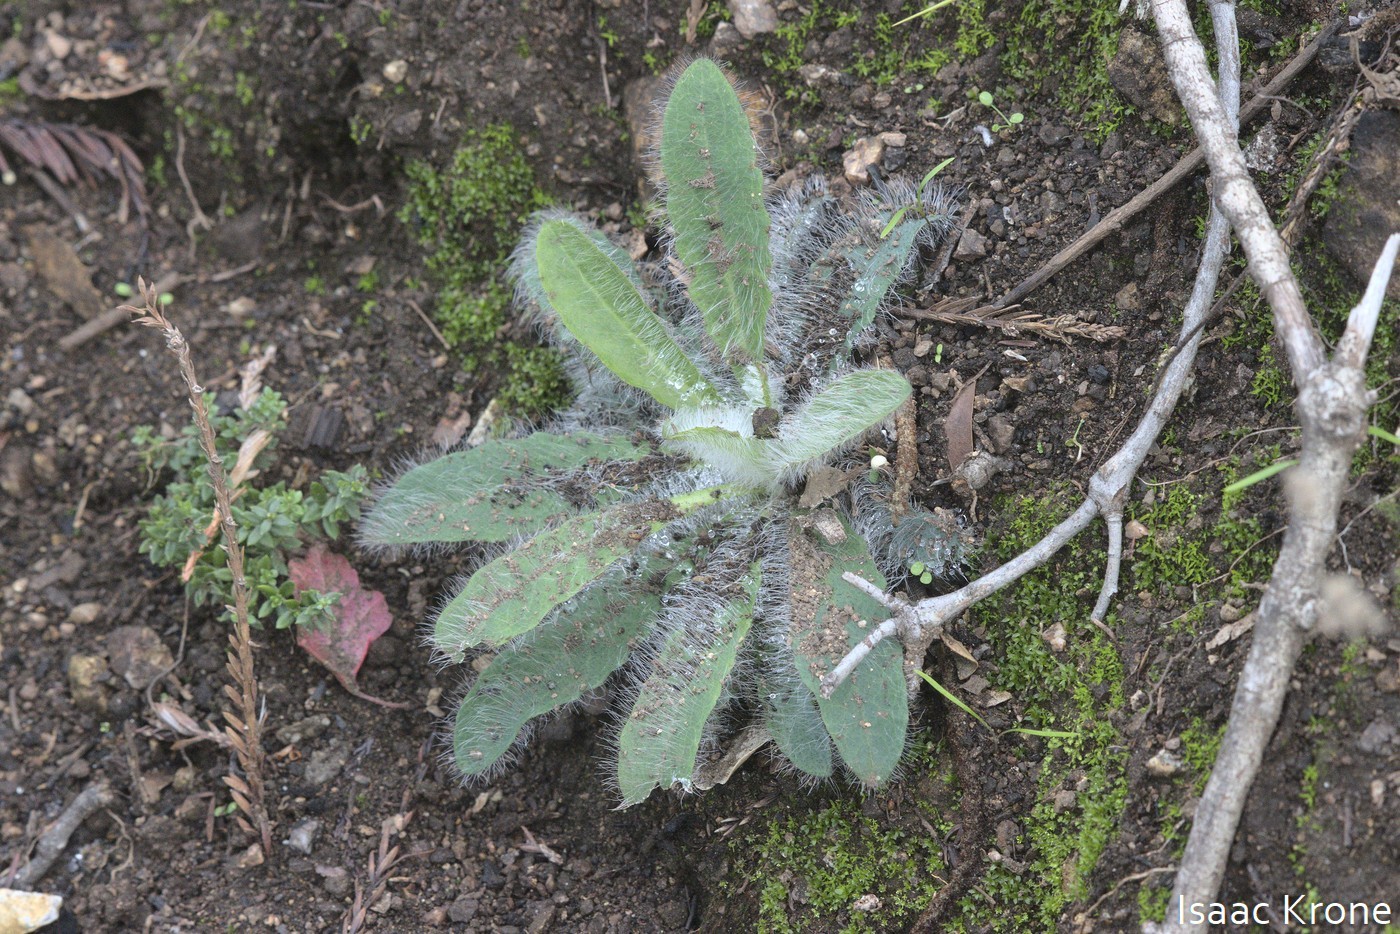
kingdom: Plantae
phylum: Tracheophyta
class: Magnoliopsida
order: Asterales
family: Asteraceae
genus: Hieracium
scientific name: Hieracium albiflorum
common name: White hawkweed
